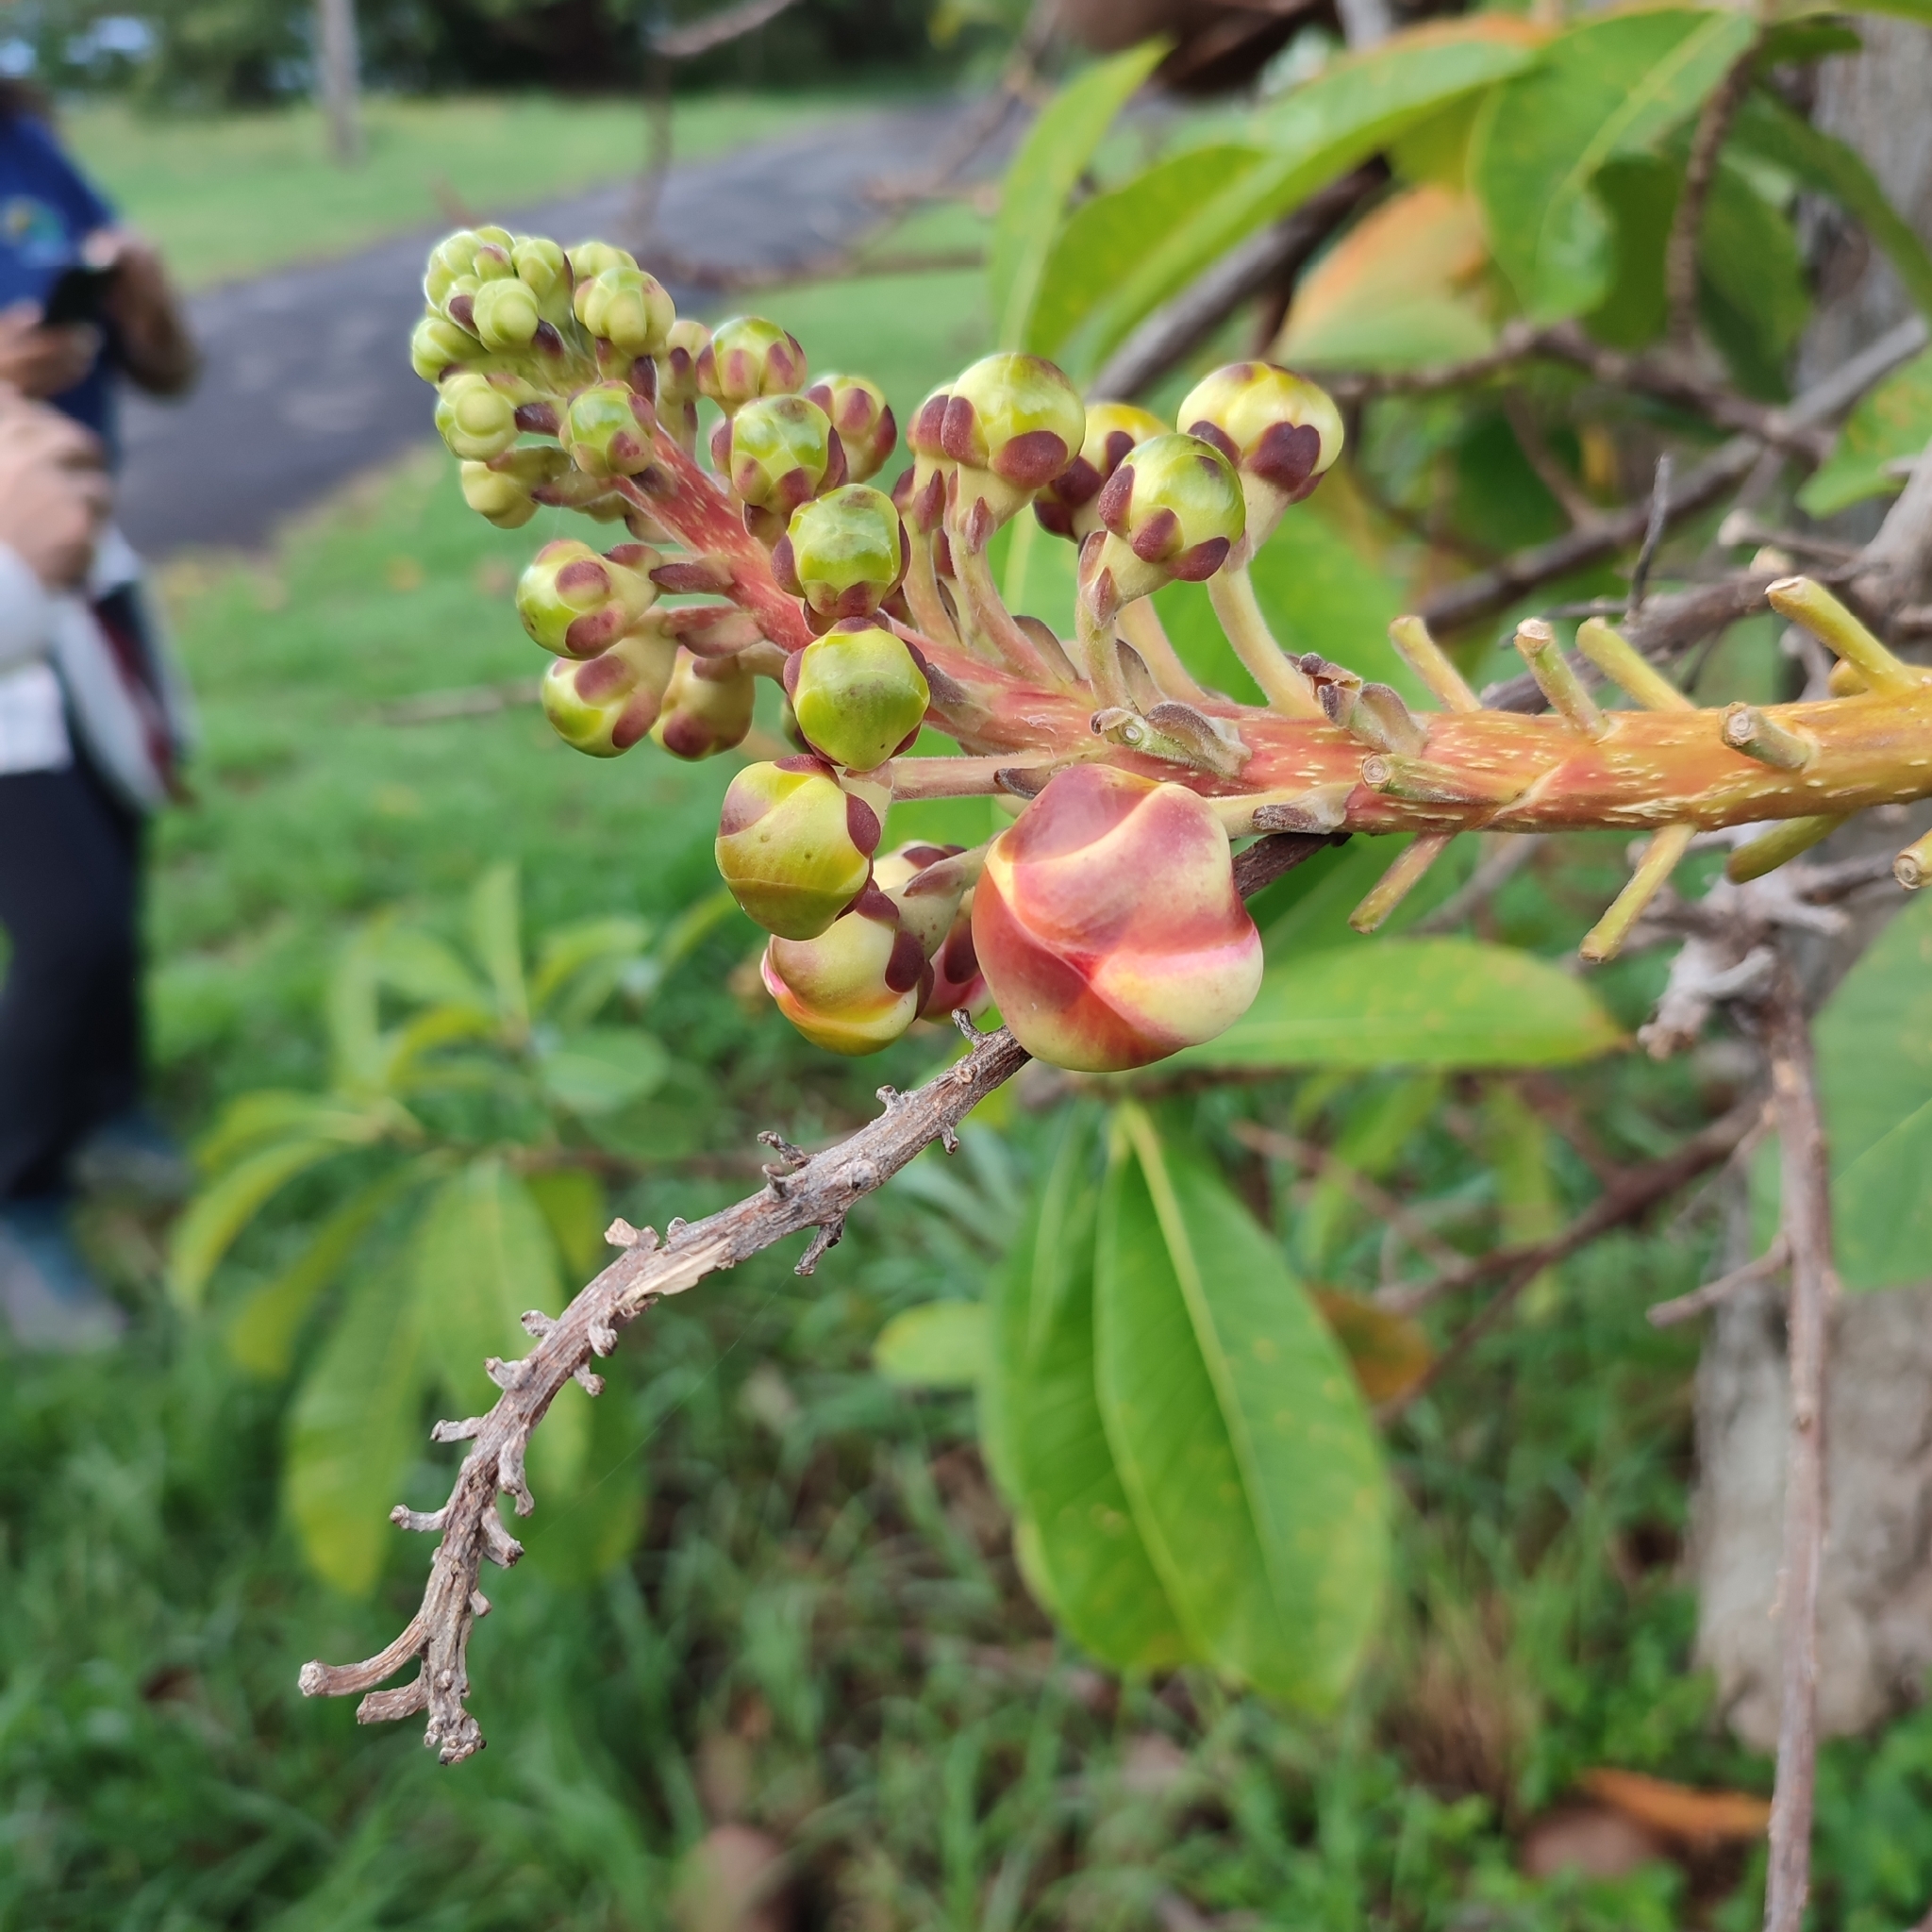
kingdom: Plantae
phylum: Tracheophyta
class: Magnoliopsida
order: Ericales
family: Lecythidaceae
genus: Couroupita
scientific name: Couroupita guianensis
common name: Cannonball tree
